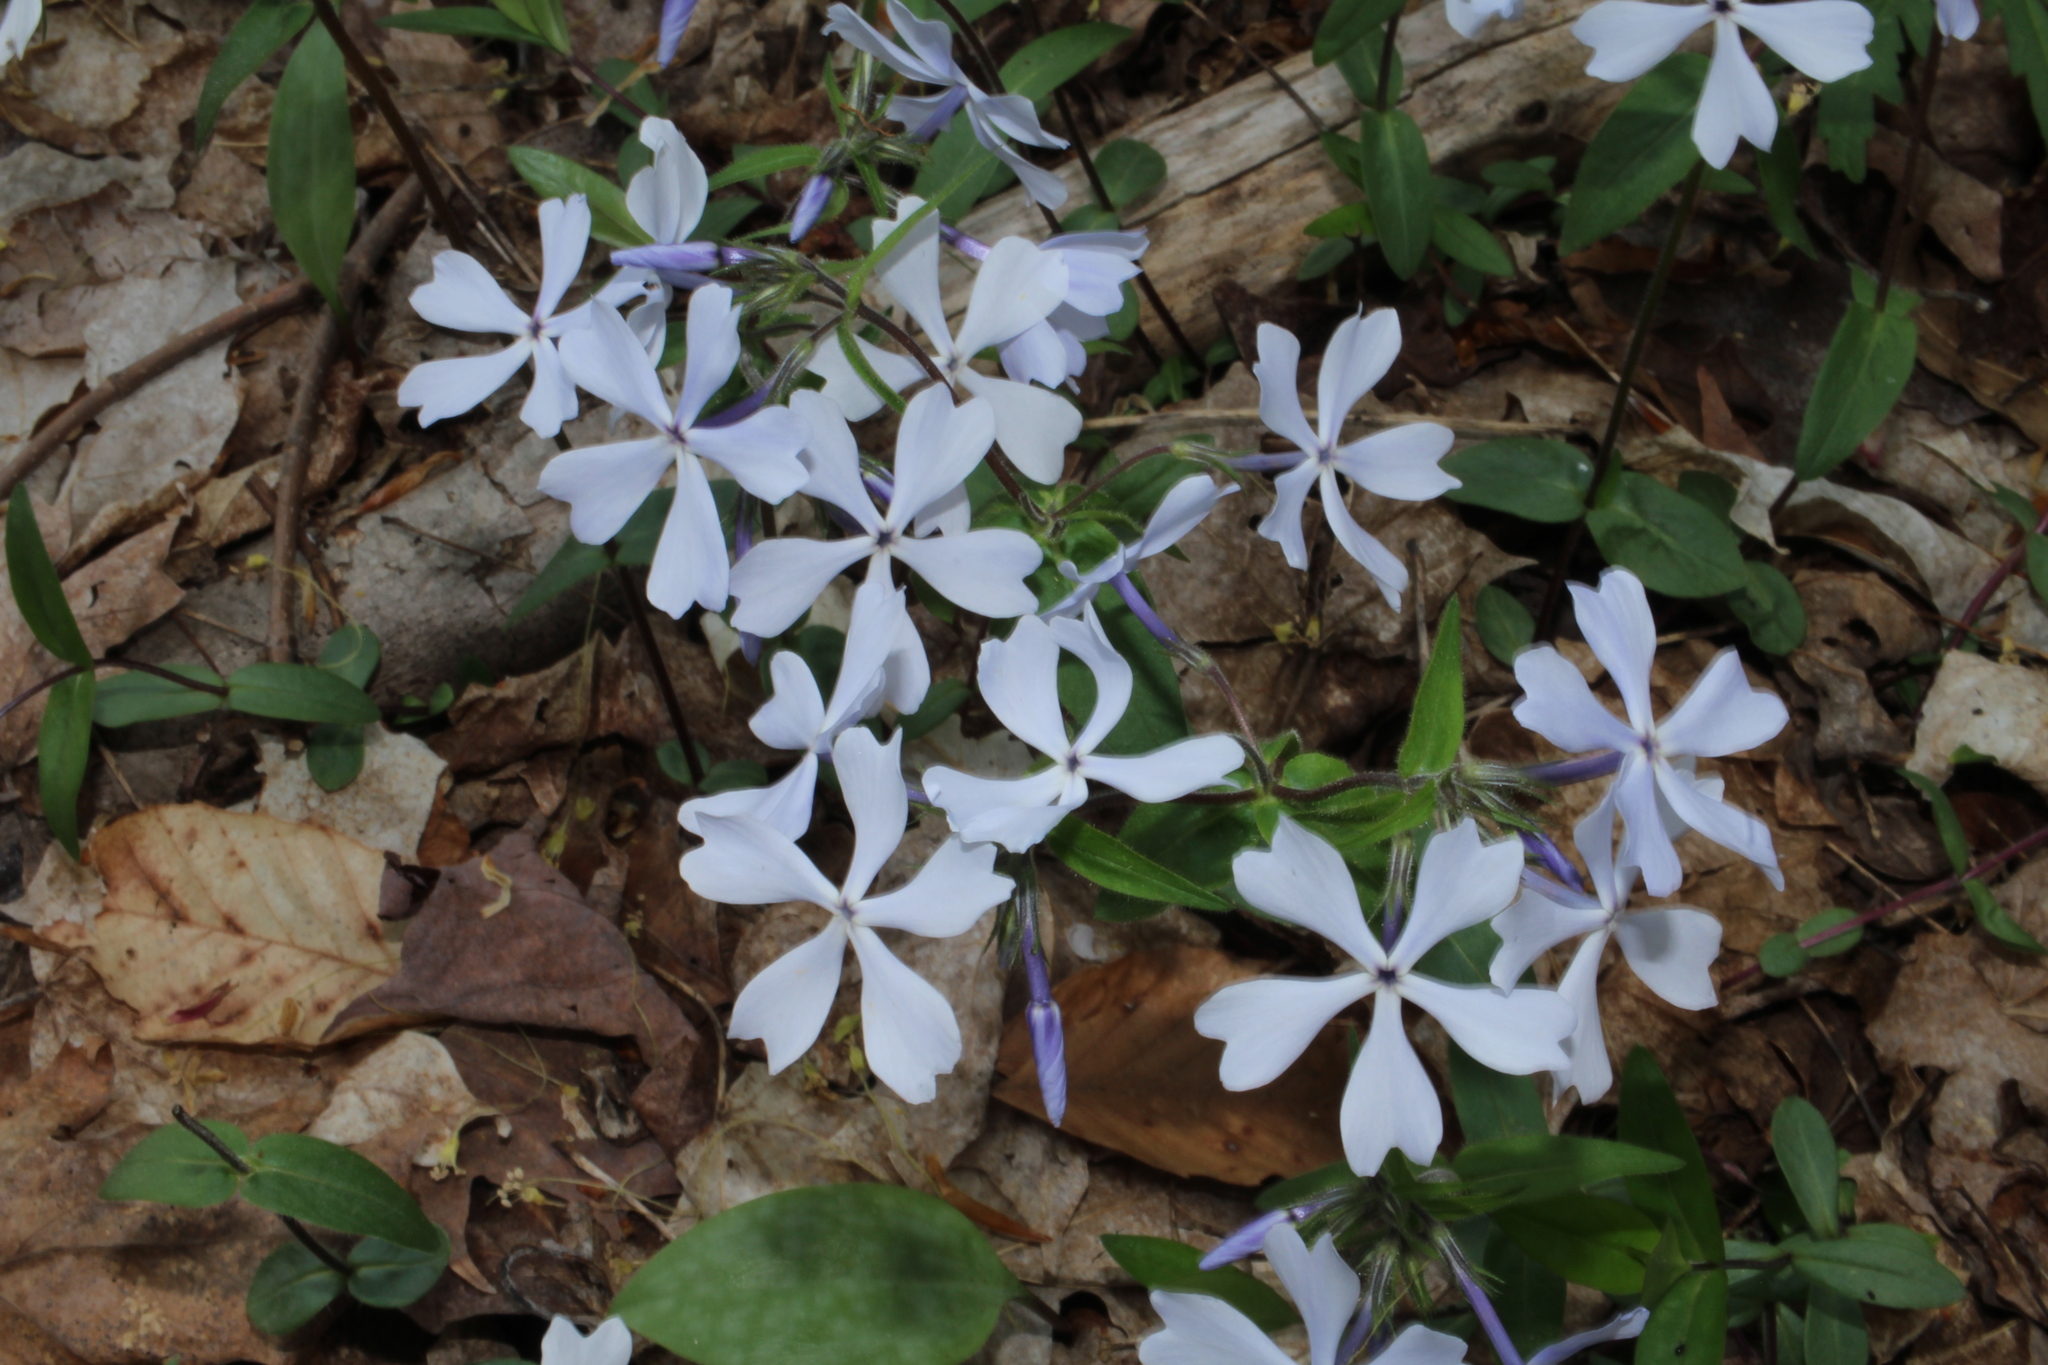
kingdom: Plantae
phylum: Tracheophyta
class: Magnoliopsida
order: Ericales
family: Polemoniaceae
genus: Phlox
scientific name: Phlox divaricata
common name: Blue phlox
